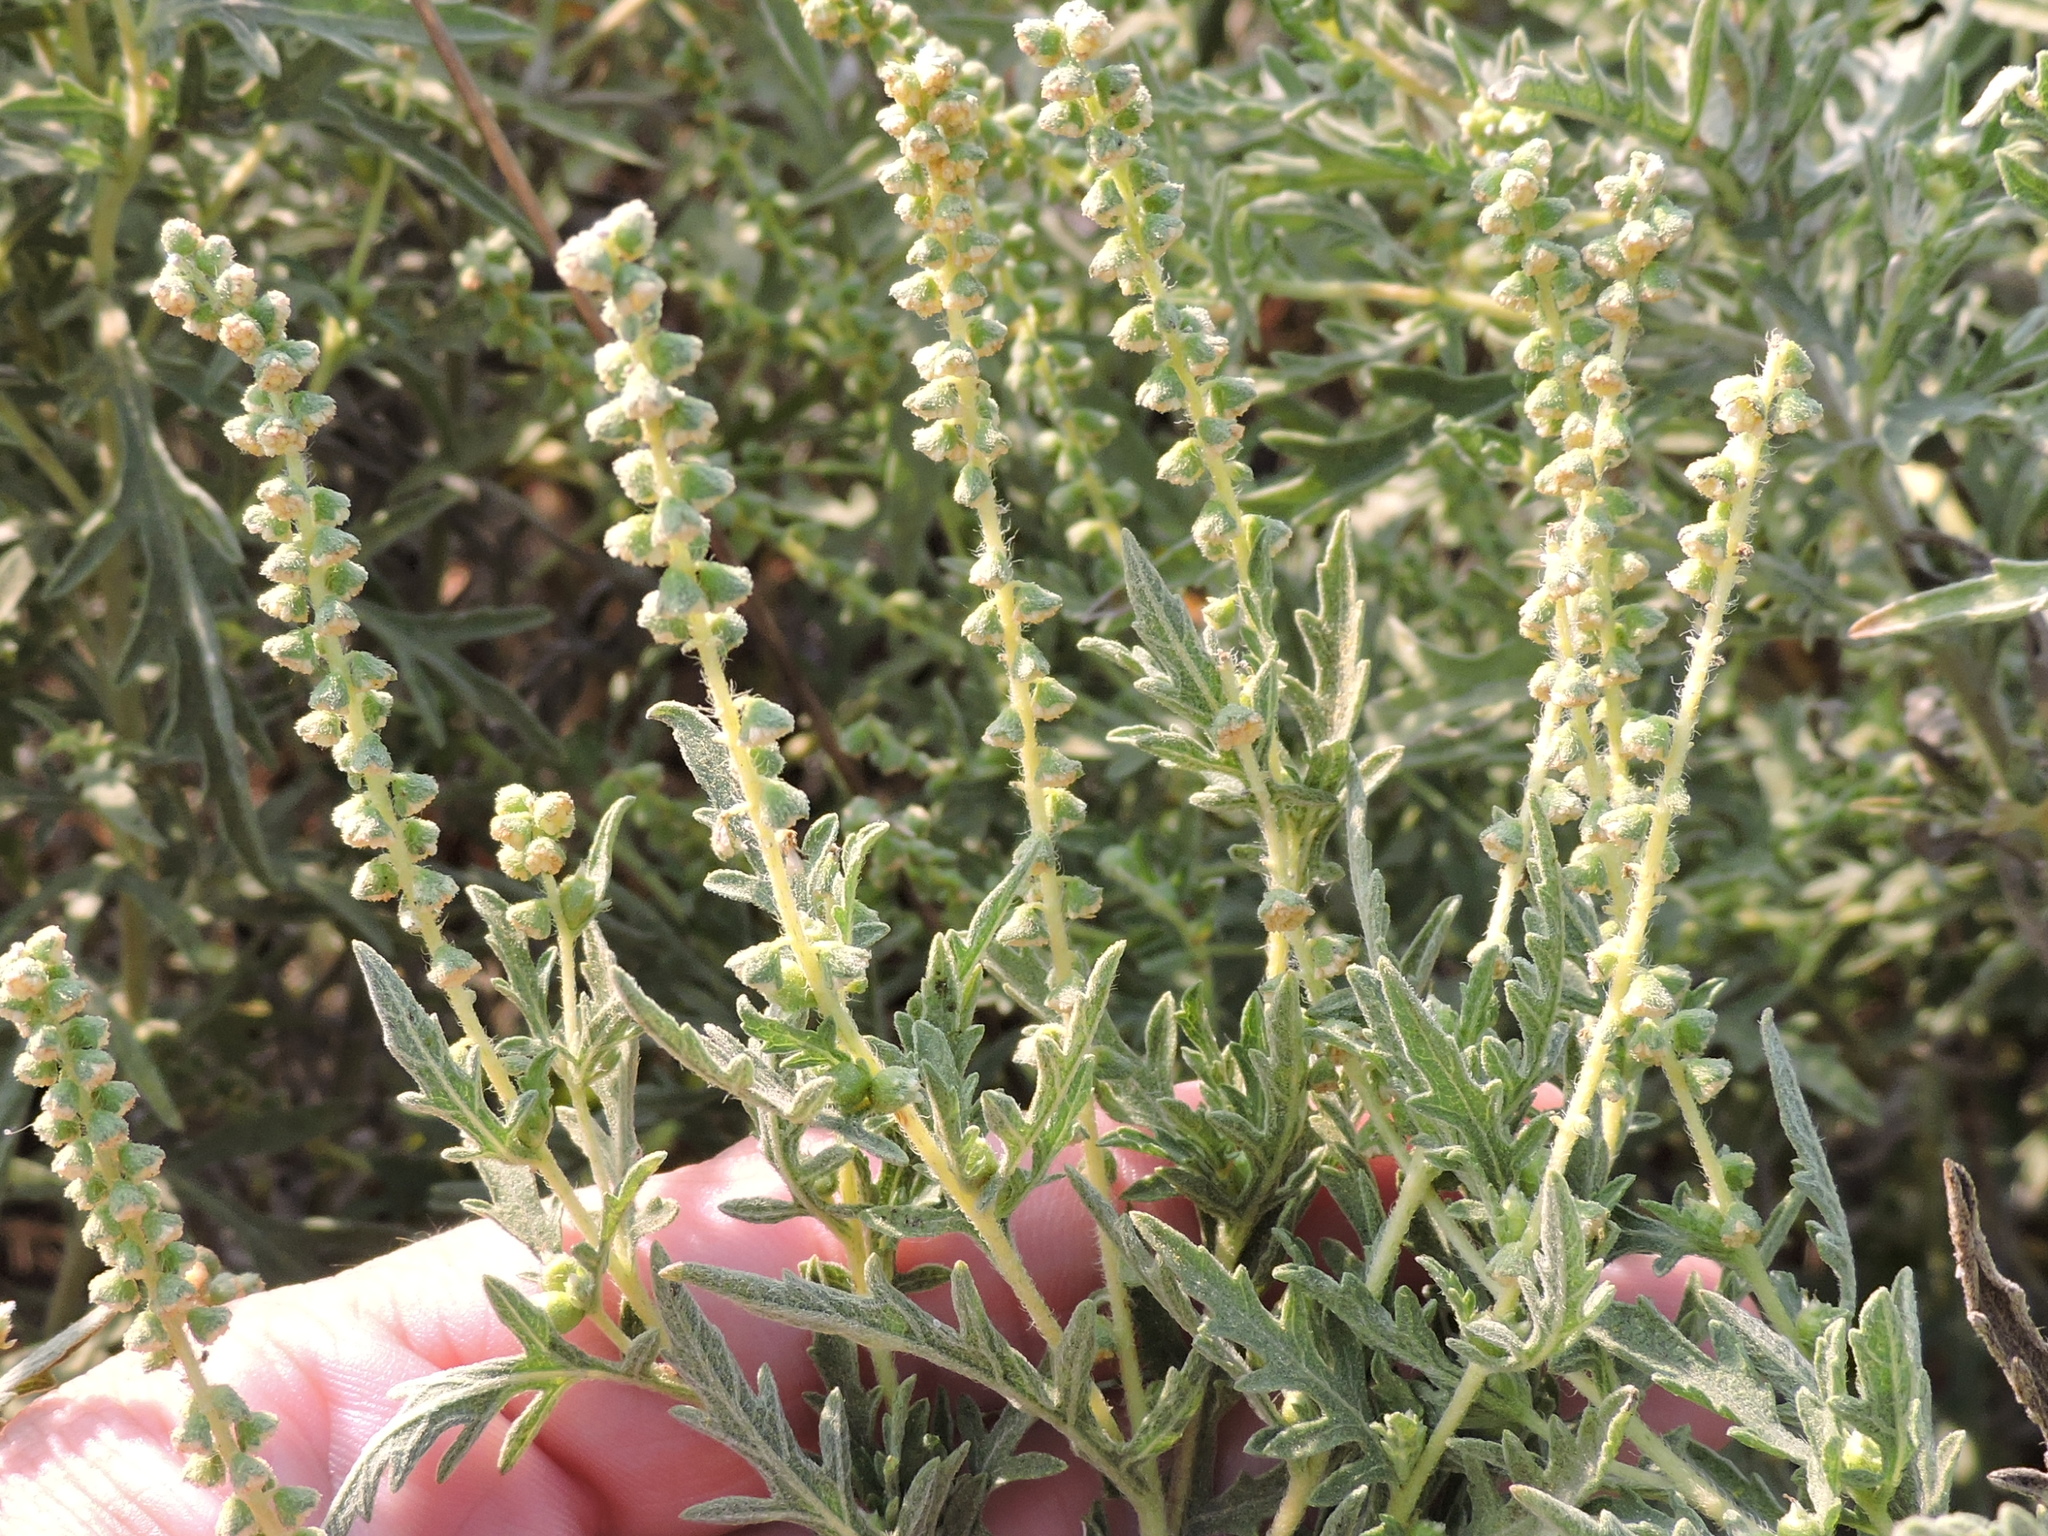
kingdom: Plantae
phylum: Tracheophyta
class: Magnoliopsida
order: Asterales
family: Asteraceae
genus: Ambrosia
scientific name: Ambrosia psilostachya
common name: Perennial ragweed
